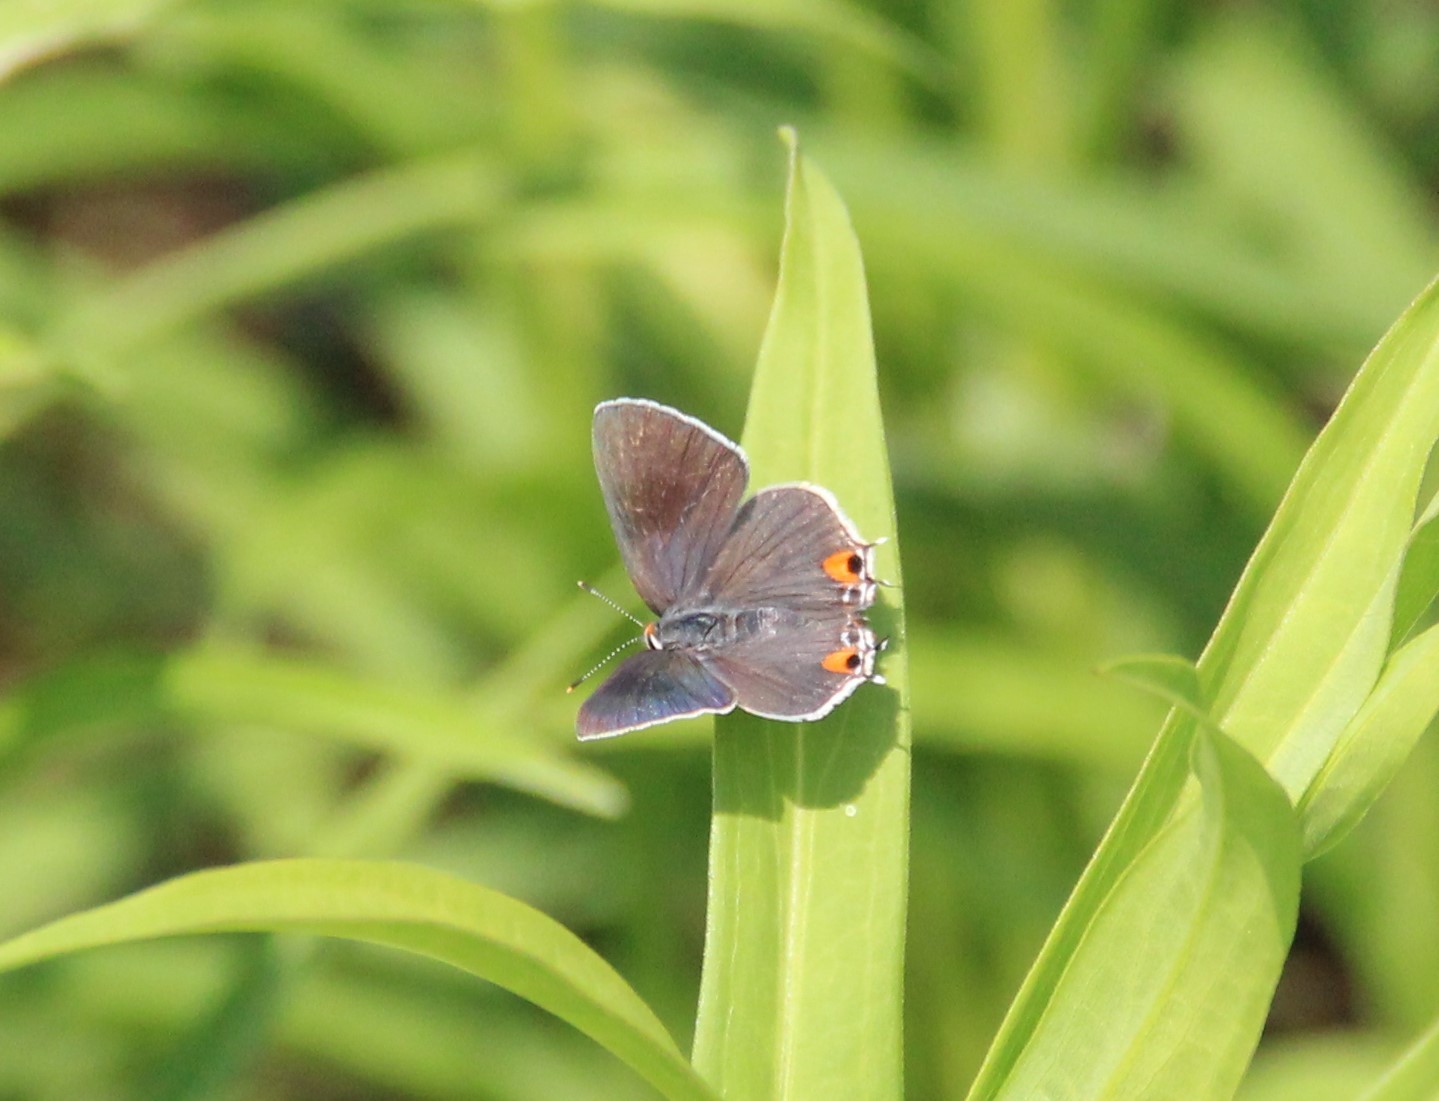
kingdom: Animalia
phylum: Arthropoda
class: Insecta
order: Lepidoptera
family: Lycaenidae
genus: Strymon
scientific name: Strymon melinus
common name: Gray hairstreak
